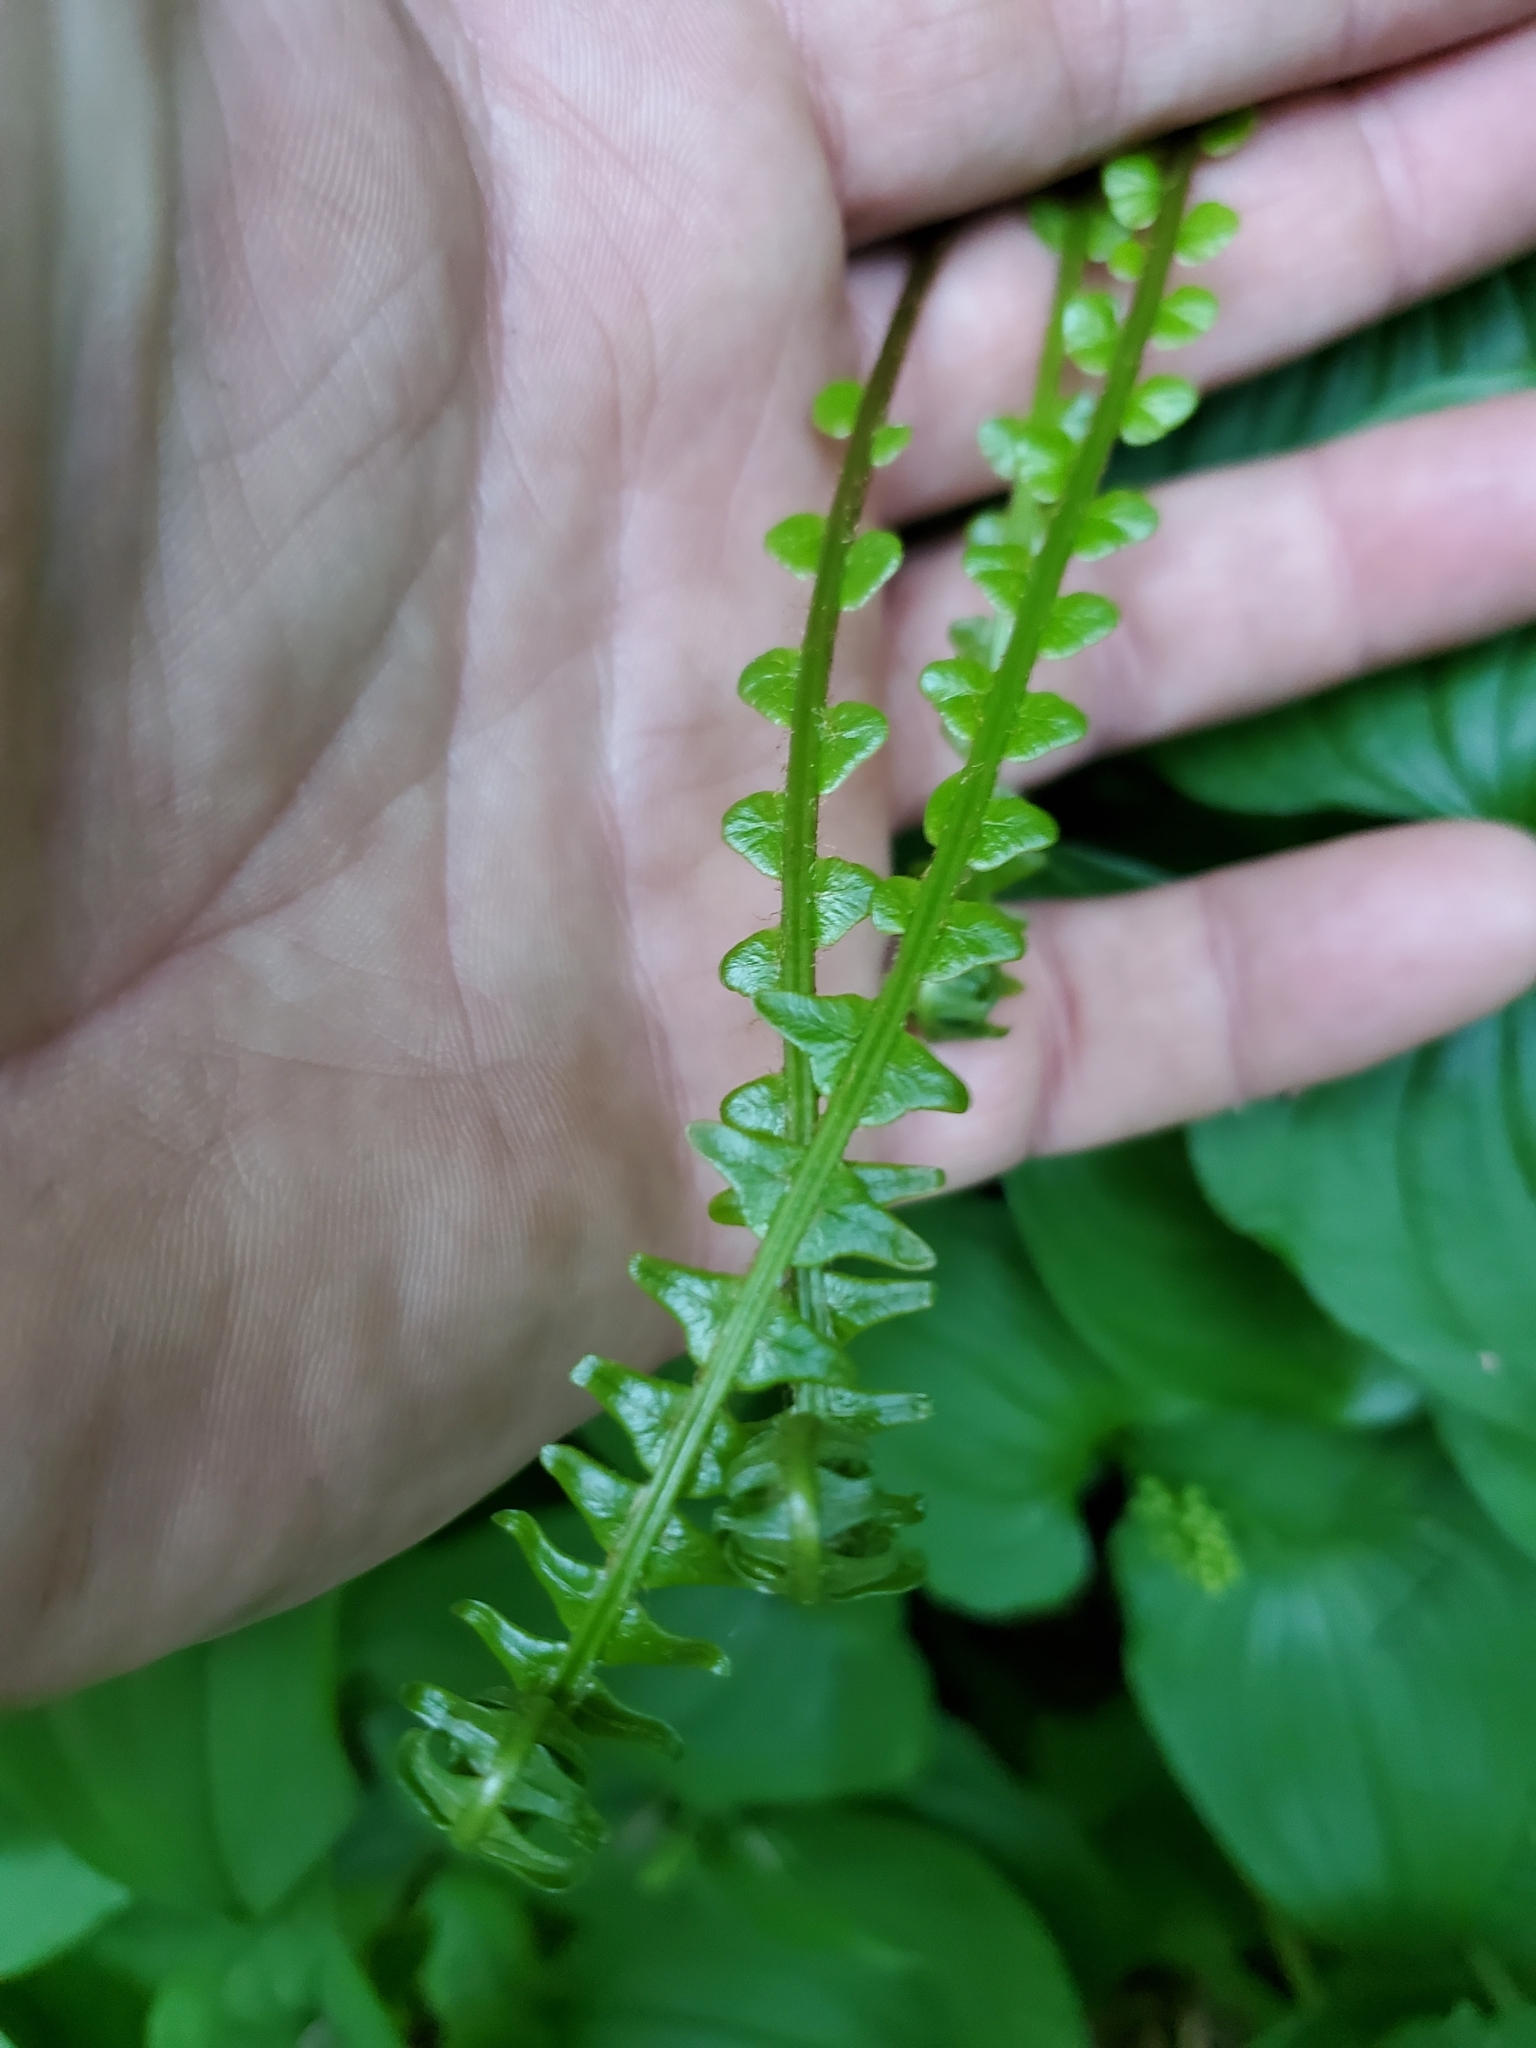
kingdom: Plantae
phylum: Tracheophyta
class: Polypodiopsida
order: Polypodiales
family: Blechnaceae
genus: Struthiopteris
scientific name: Struthiopteris spicant
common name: Deer fern
